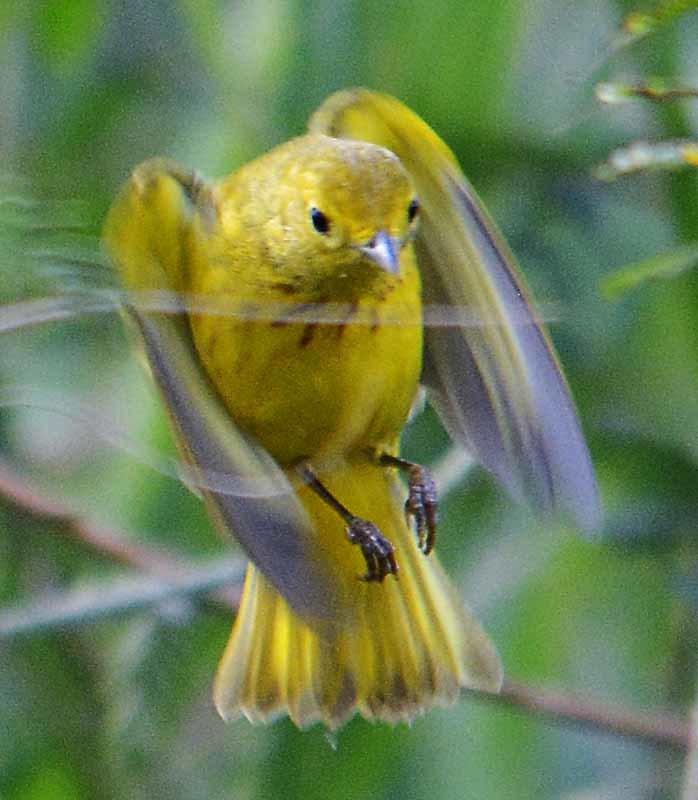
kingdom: Animalia
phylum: Chordata
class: Aves
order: Passeriformes
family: Parulidae
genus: Setophaga
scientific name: Setophaga petechia
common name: Yellow warbler
